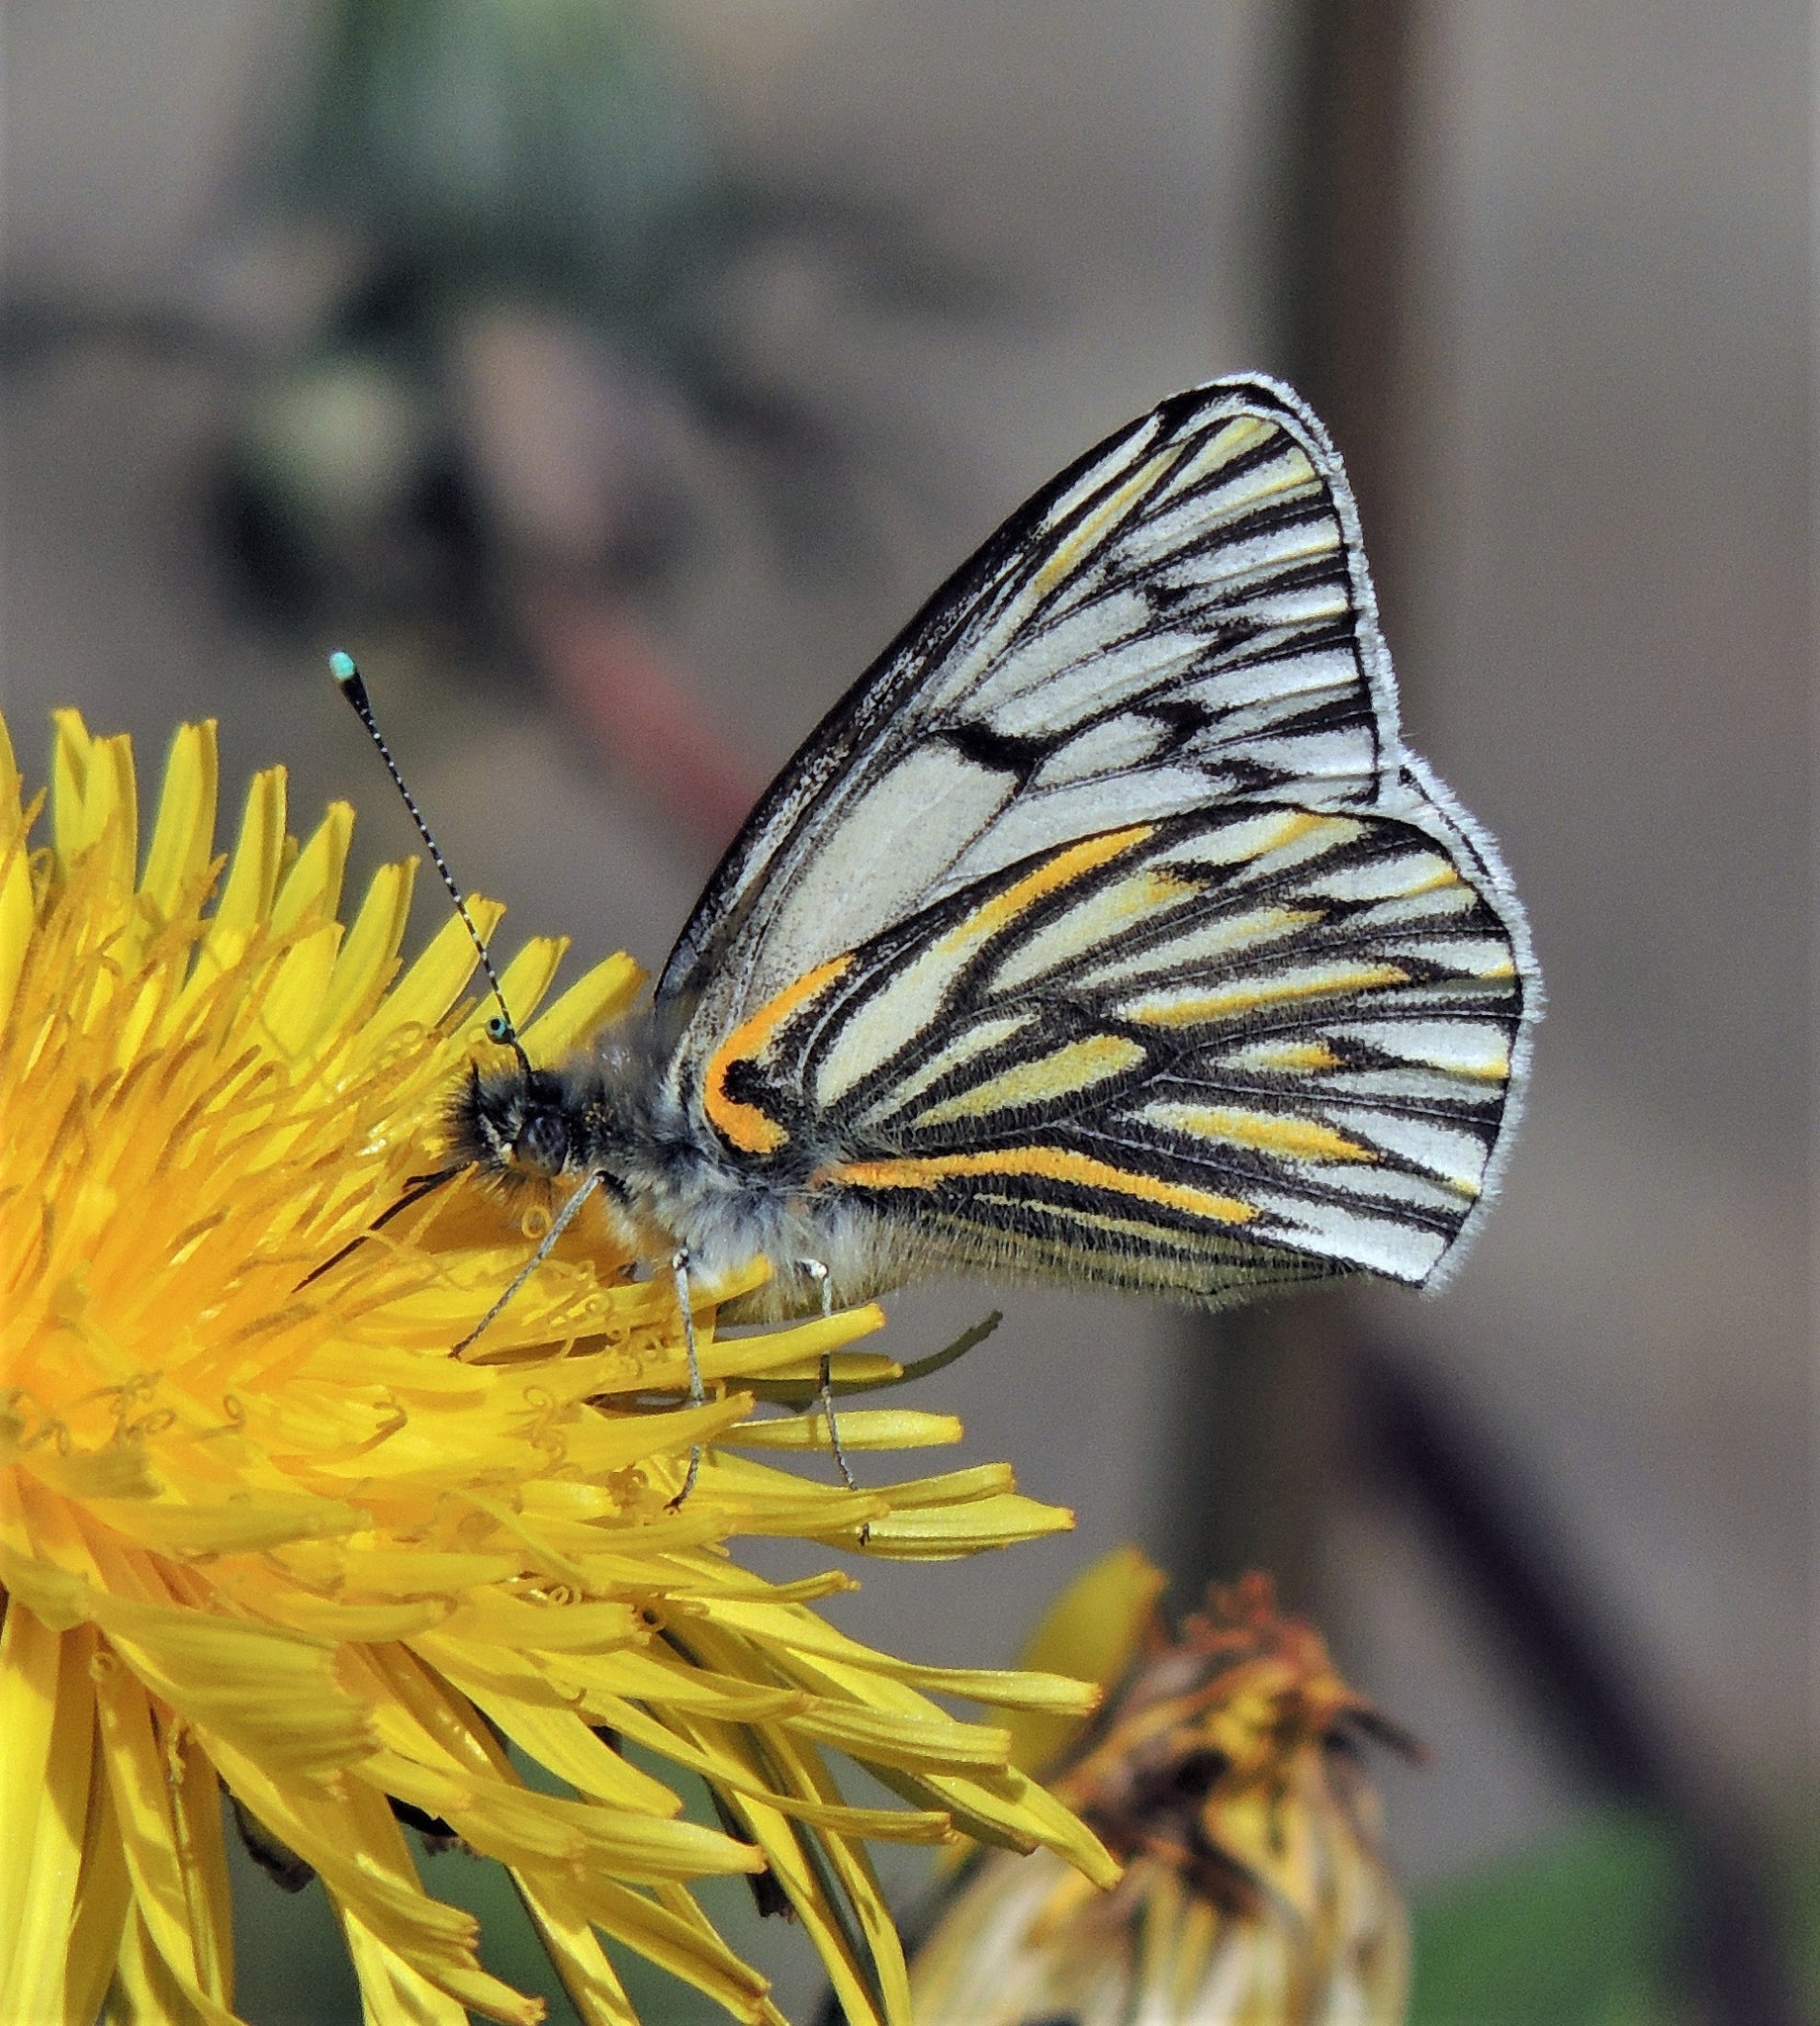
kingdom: Animalia
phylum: Arthropoda
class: Insecta
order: Lepidoptera
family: Pieridae
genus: Tatochila
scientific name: Tatochila theodice
